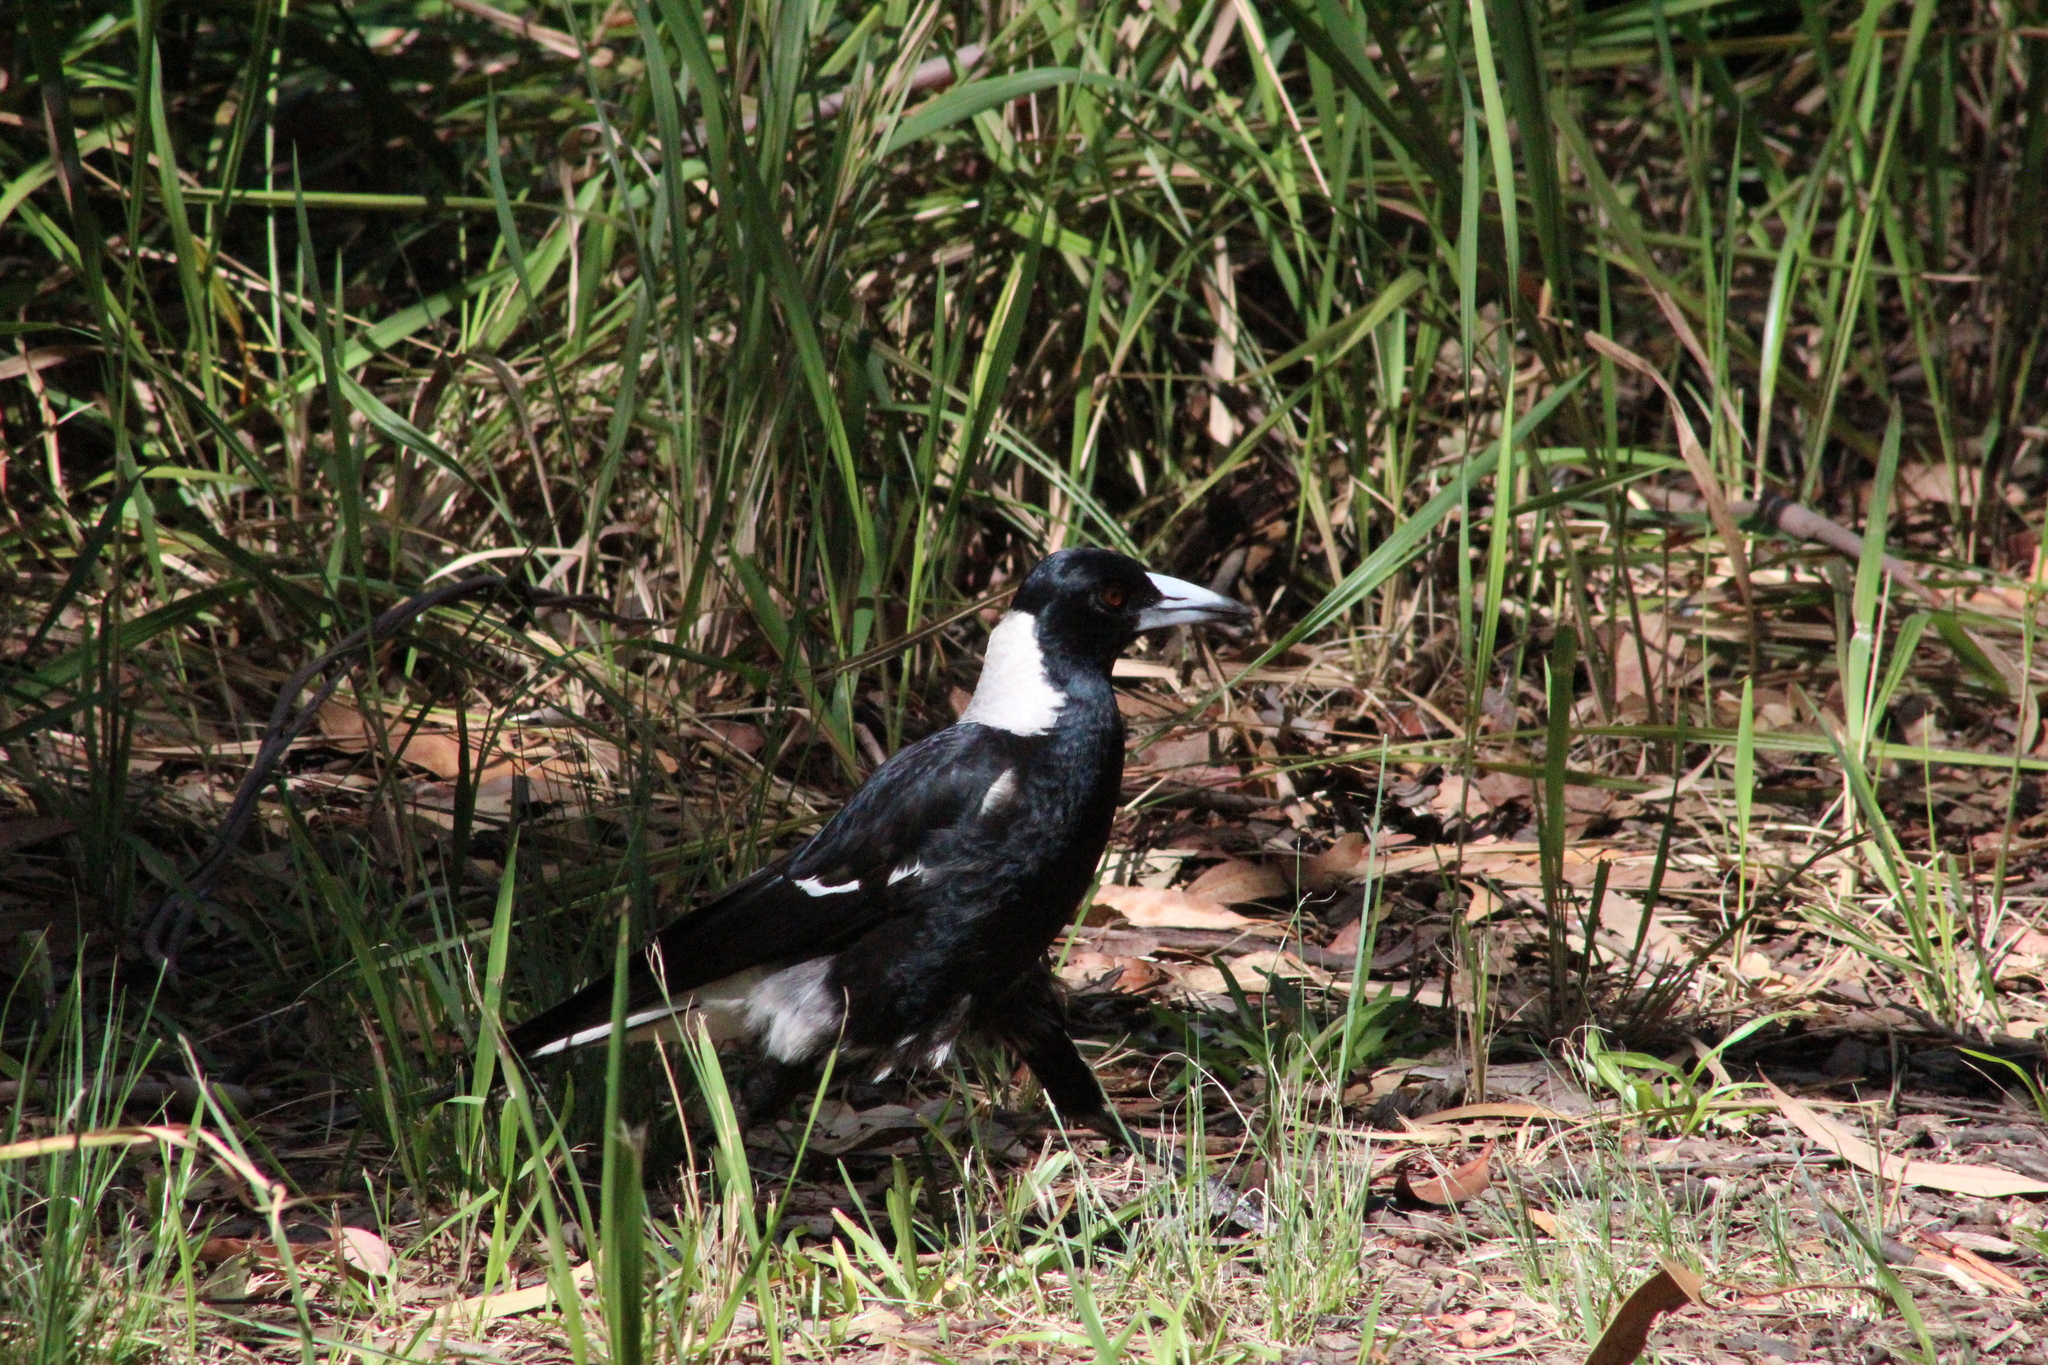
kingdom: Animalia
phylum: Chordata
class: Aves
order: Passeriformes
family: Cracticidae
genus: Gymnorhina
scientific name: Gymnorhina tibicen
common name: Australian magpie
